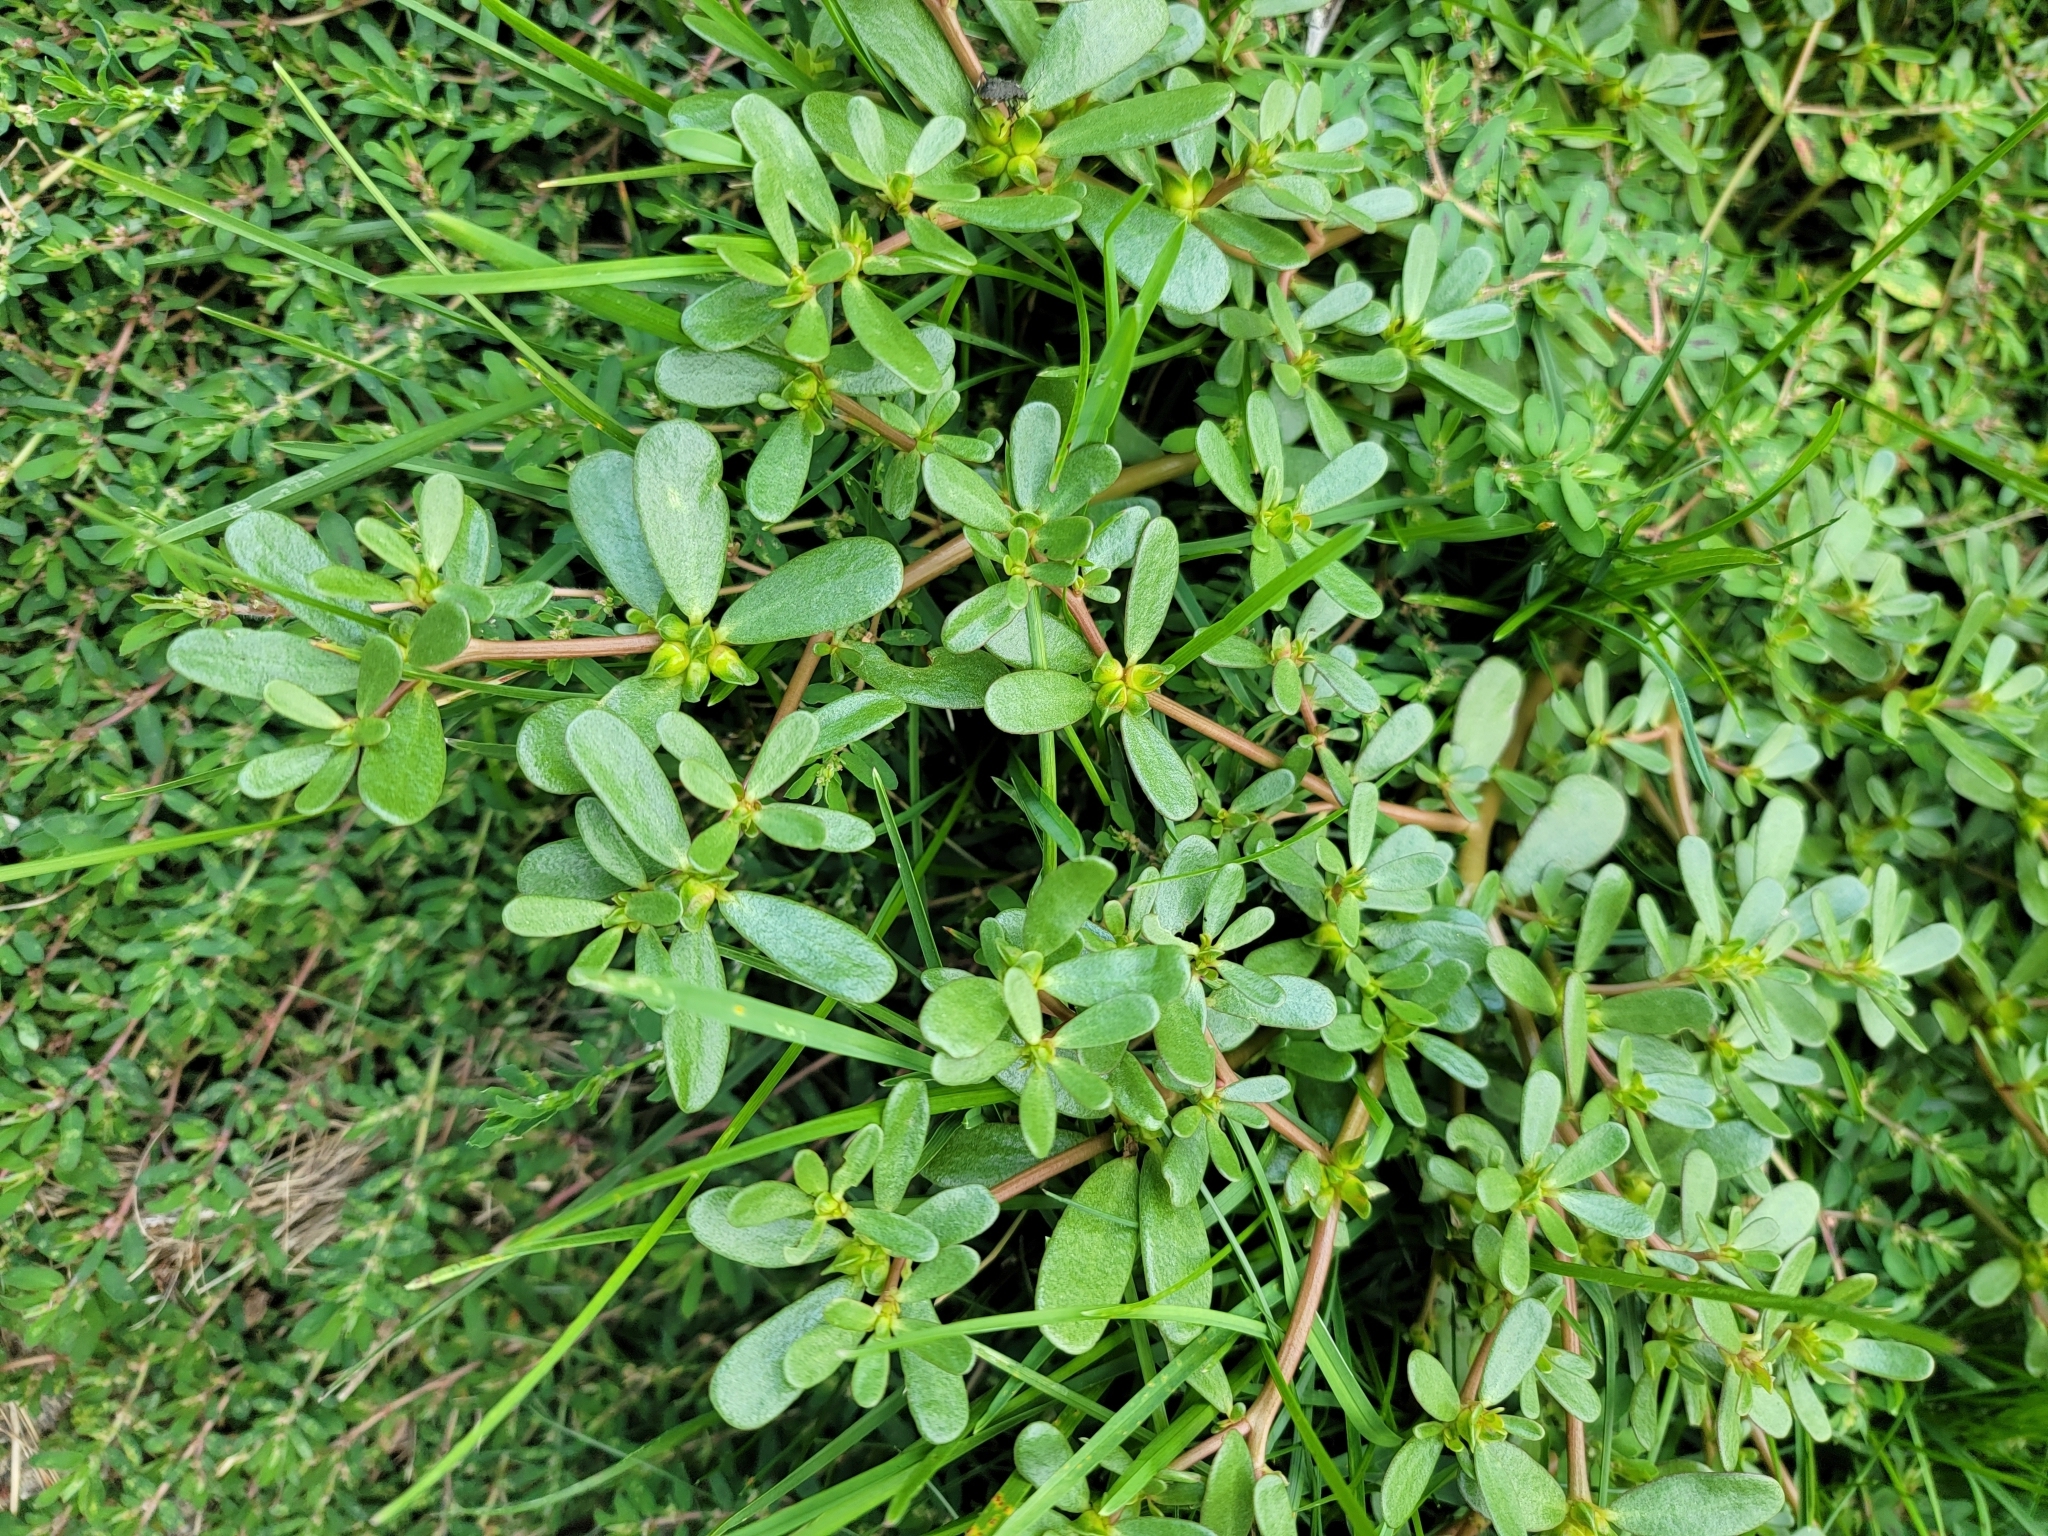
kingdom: Plantae
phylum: Tracheophyta
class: Magnoliopsida
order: Caryophyllales
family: Portulacaceae
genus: Portulaca
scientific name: Portulaca oleracea
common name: Common purslane
